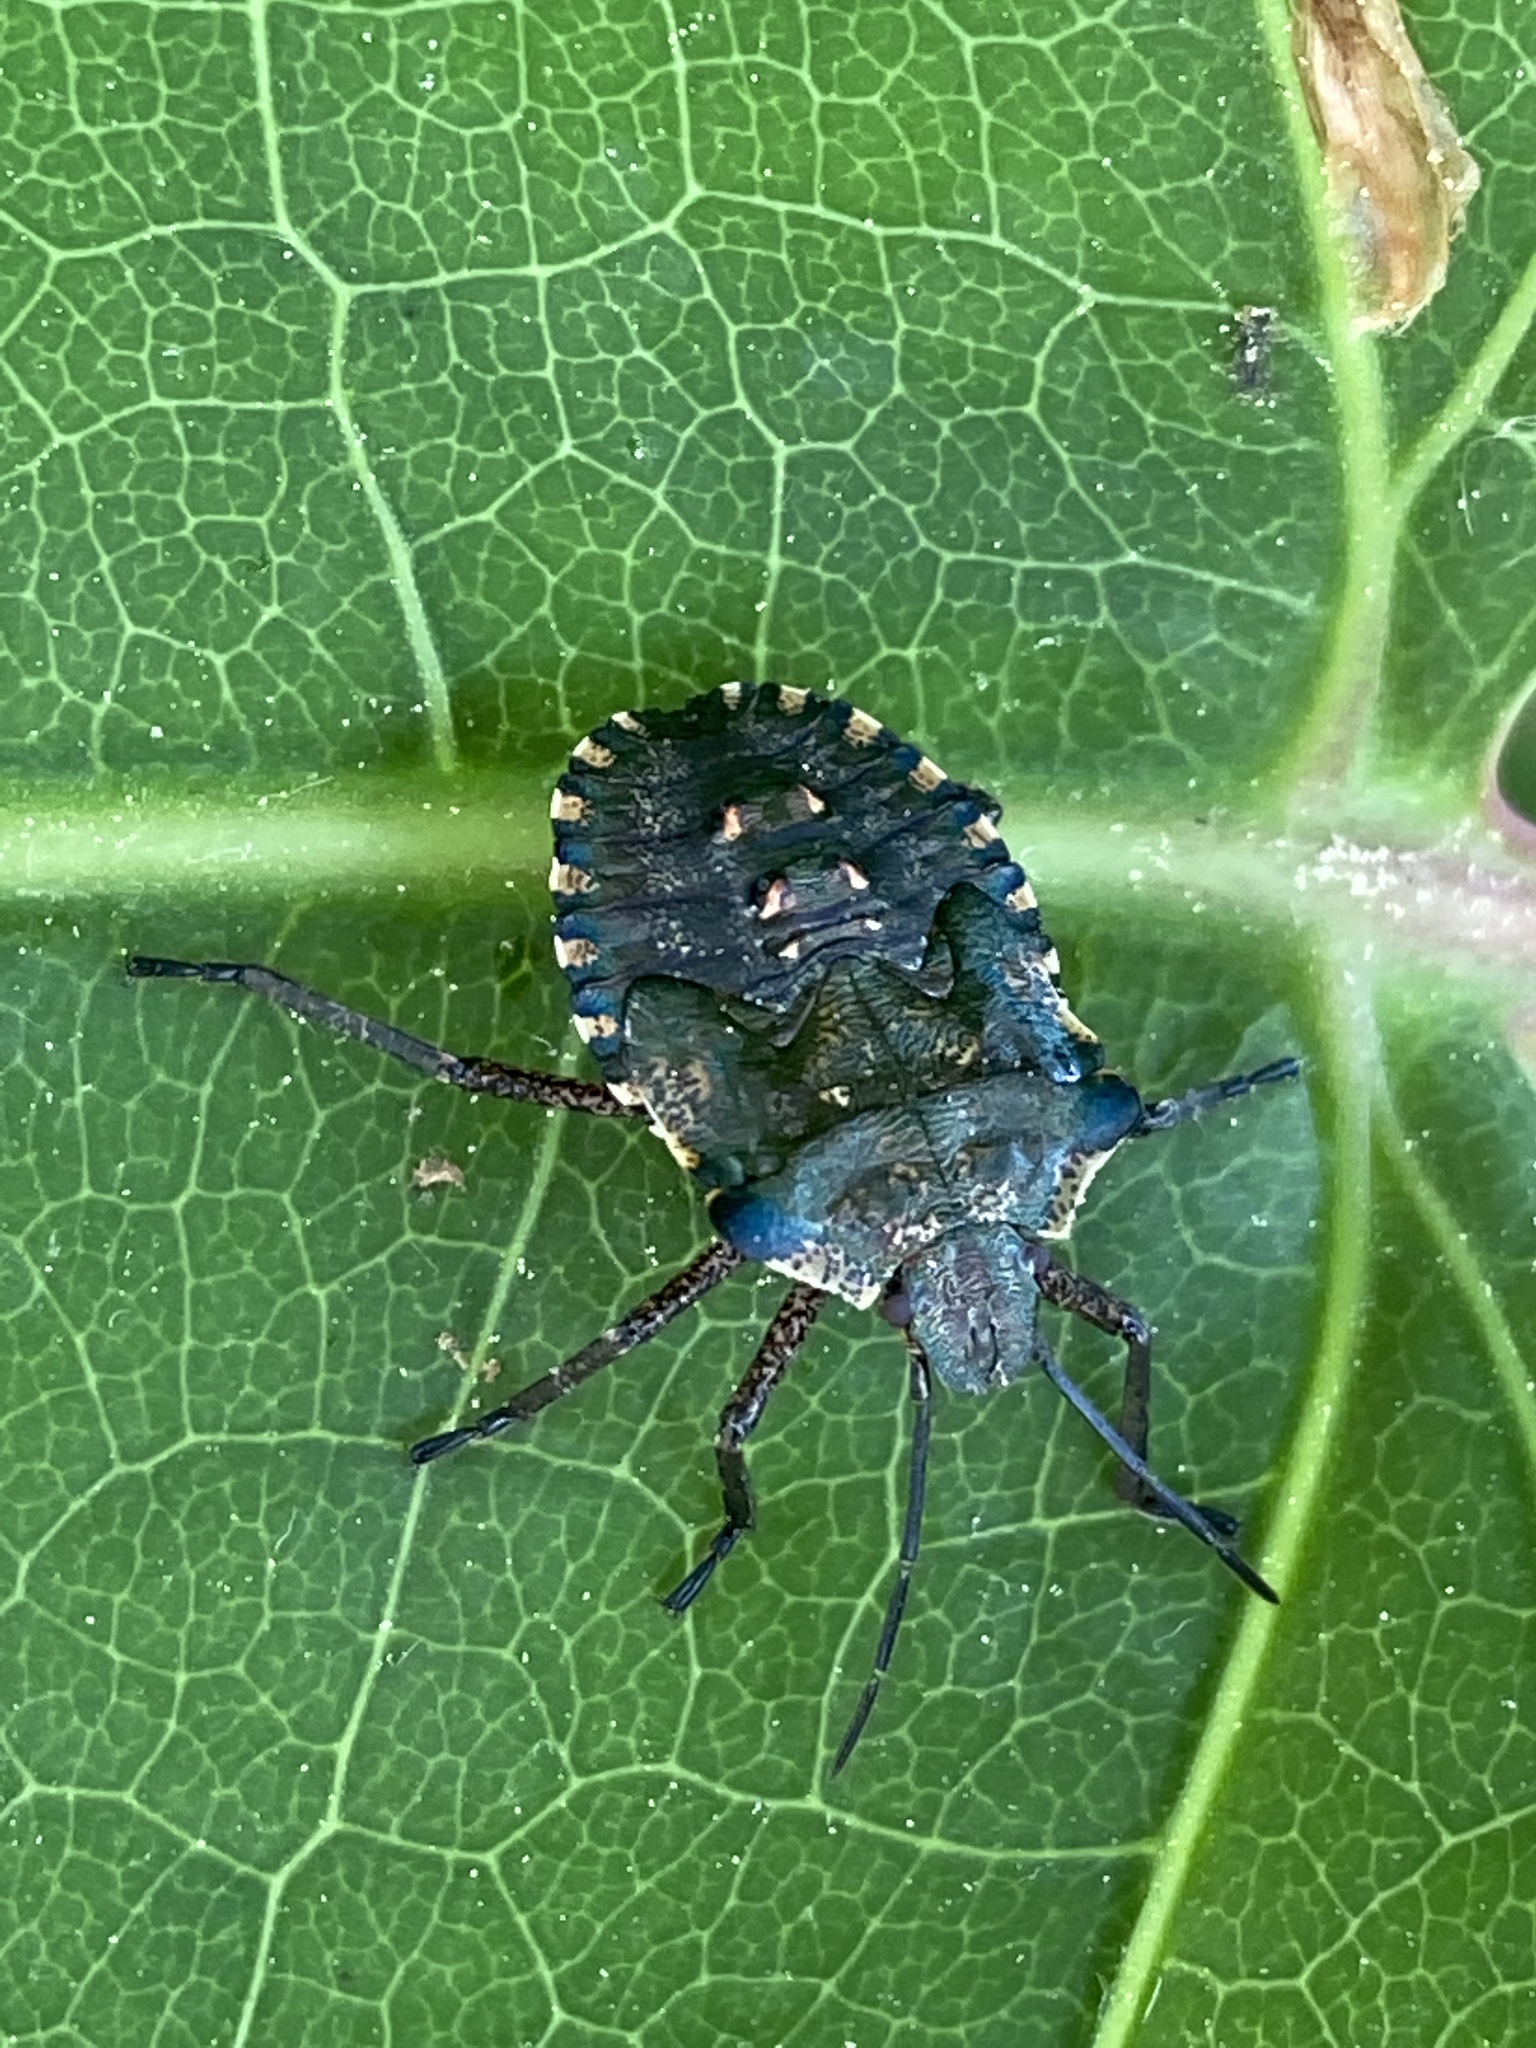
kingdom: Animalia
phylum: Arthropoda
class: Insecta
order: Hemiptera
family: Pentatomidae
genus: Pentatoma
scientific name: Pentatoma rufipes
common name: Forest bug
